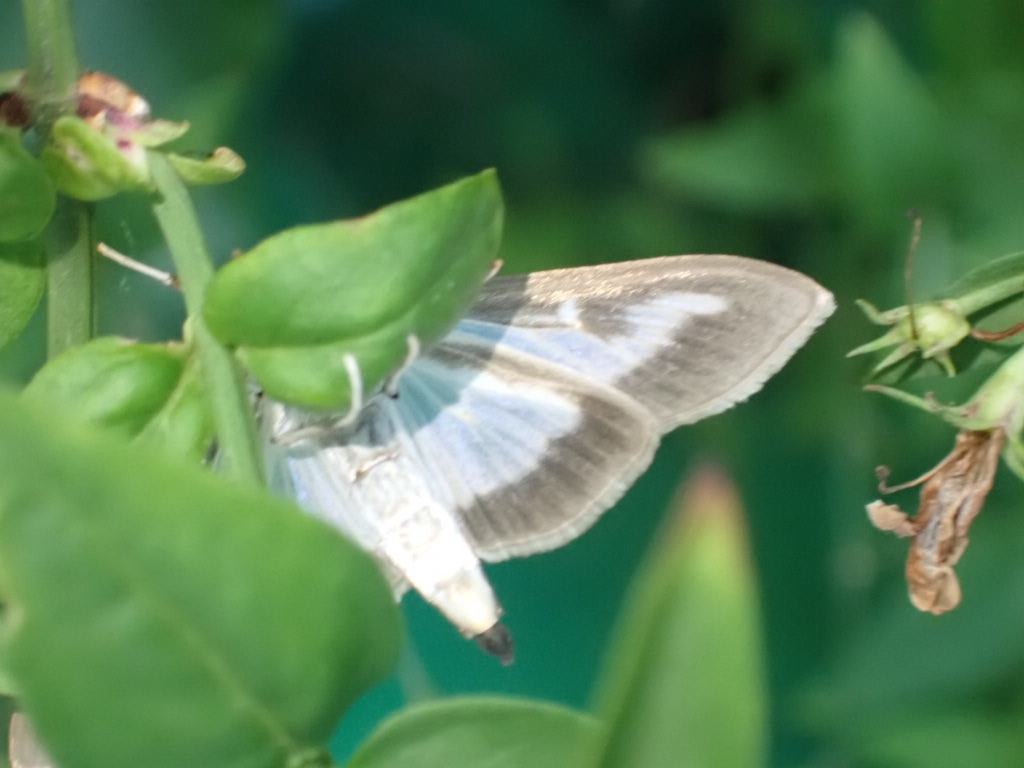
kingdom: Animalia
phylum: Arthropoda
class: Insecta
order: Lepidoptera
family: Crambidae
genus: Cydalima
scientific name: Cydalima perspectalis
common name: Box tree moth
